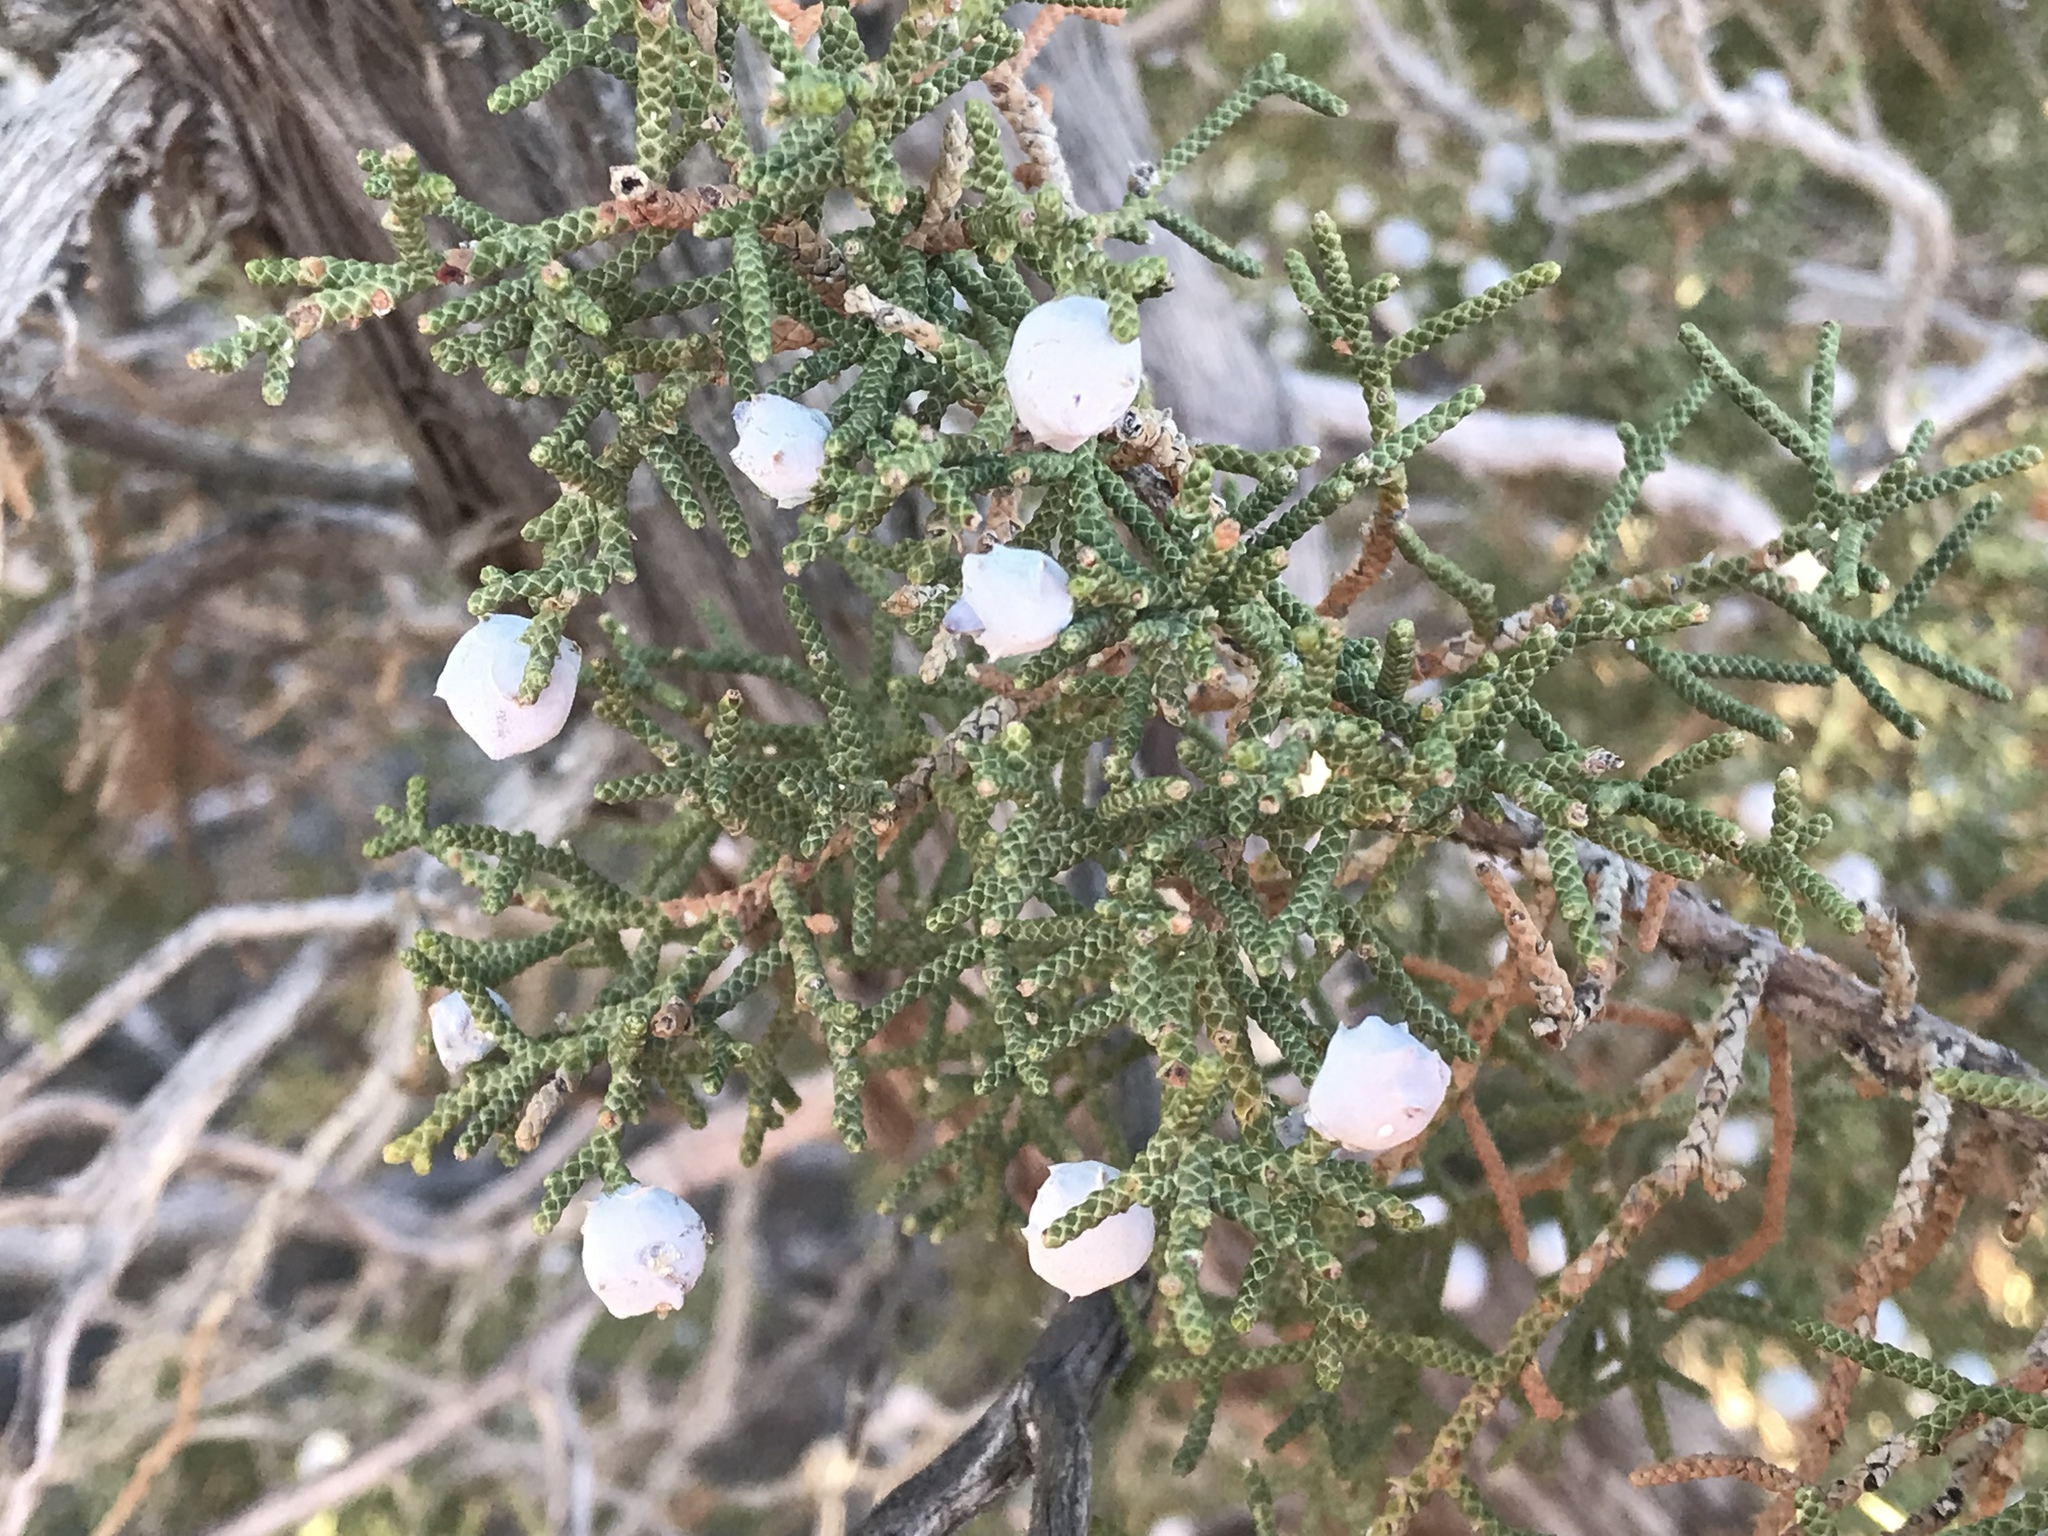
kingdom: Plantae
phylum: Tracheophyta
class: Pinopsida
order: Pinales
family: Cupressaceae
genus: Juniperus
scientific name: Juniperus californica
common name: California juniper
